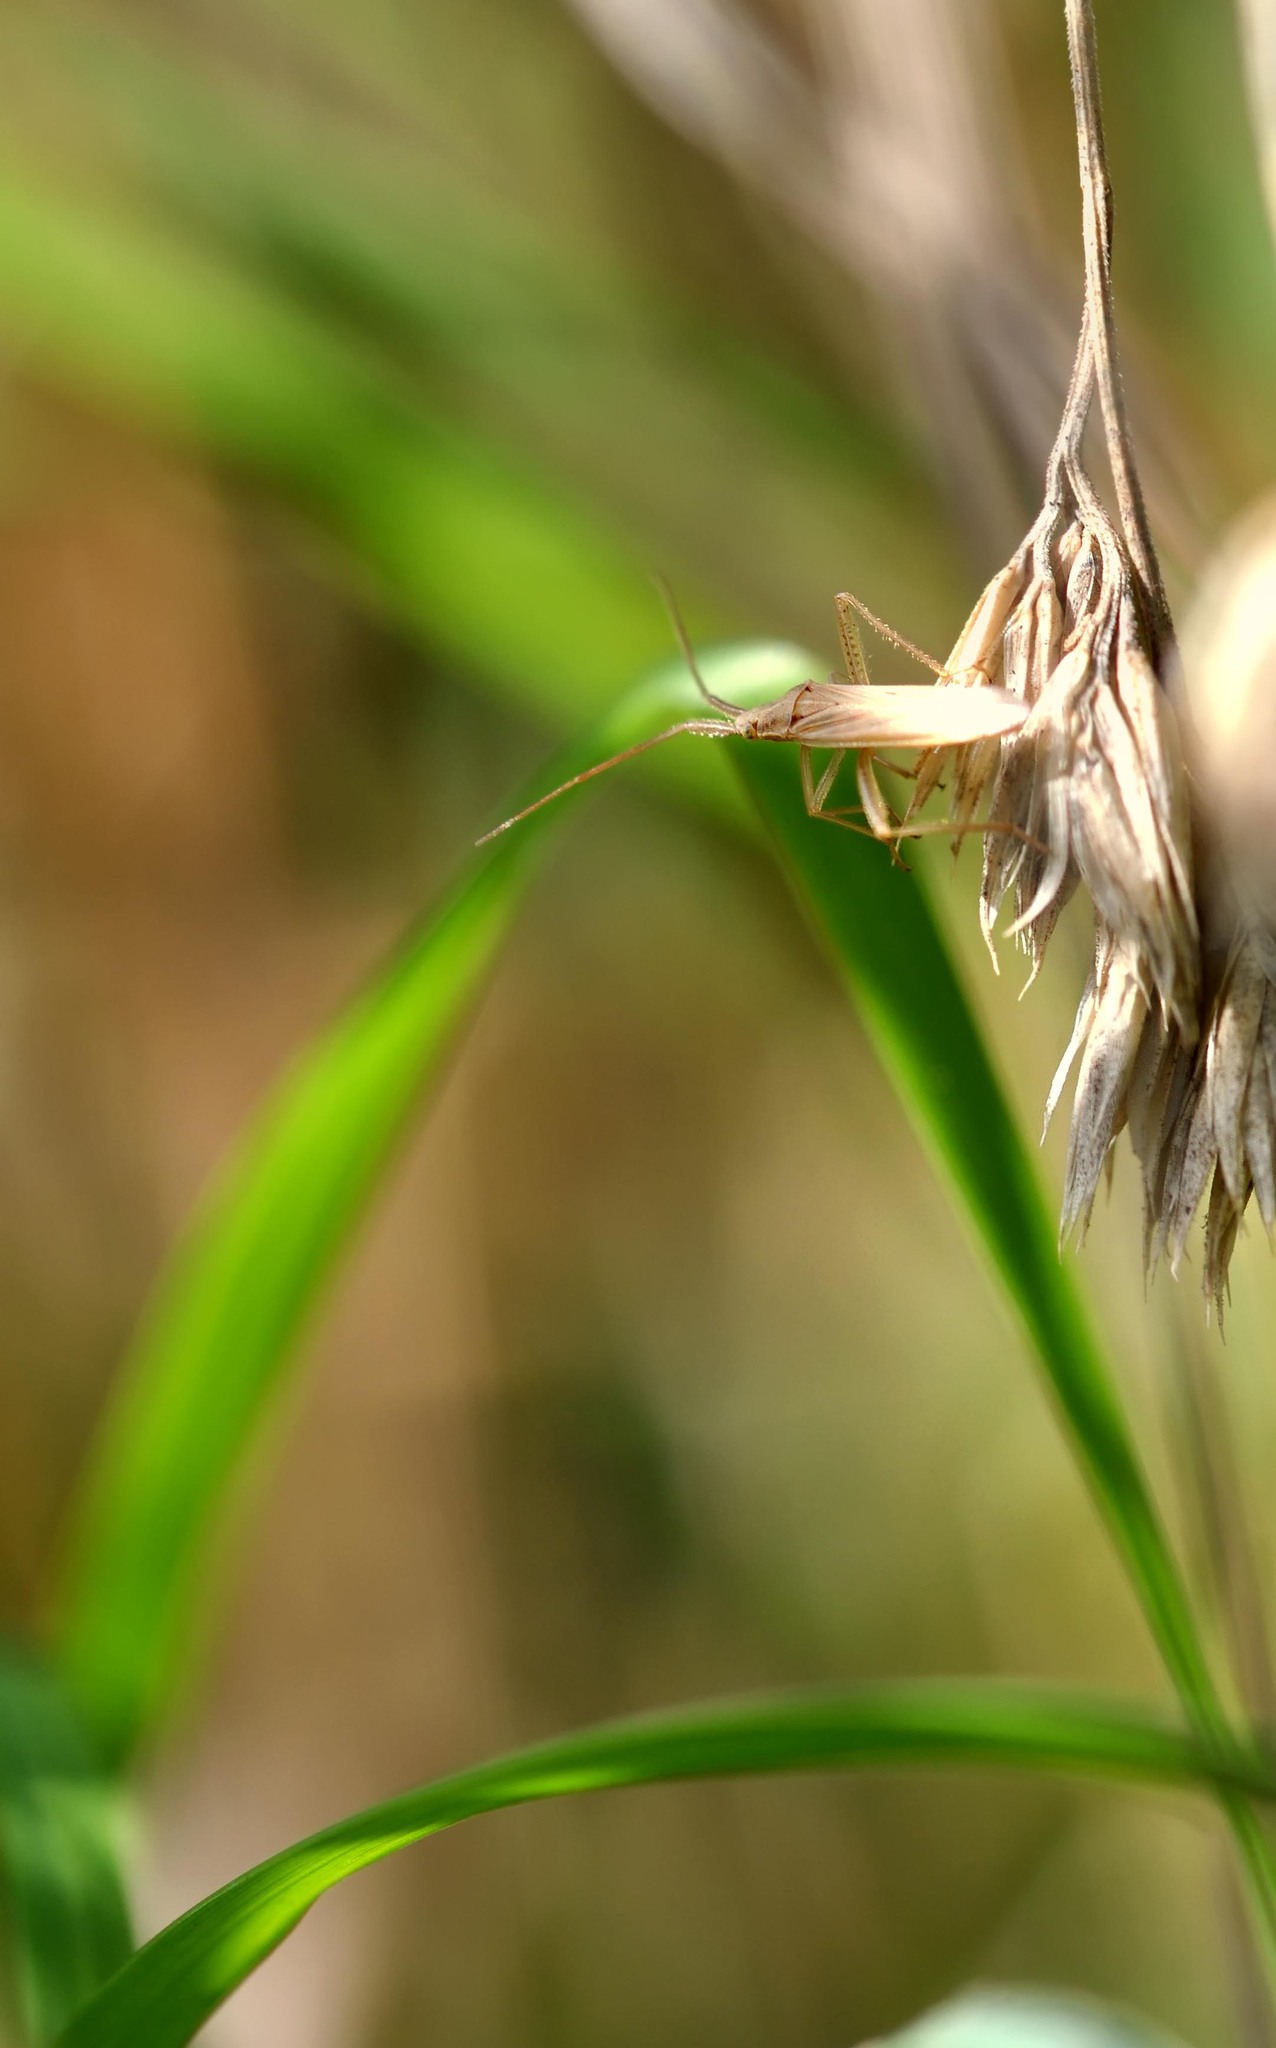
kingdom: Animalia
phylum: Arthropoda
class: Insecta
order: Hemiptera
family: Miridae
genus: Stenodema
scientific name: Stenodema laevigata
